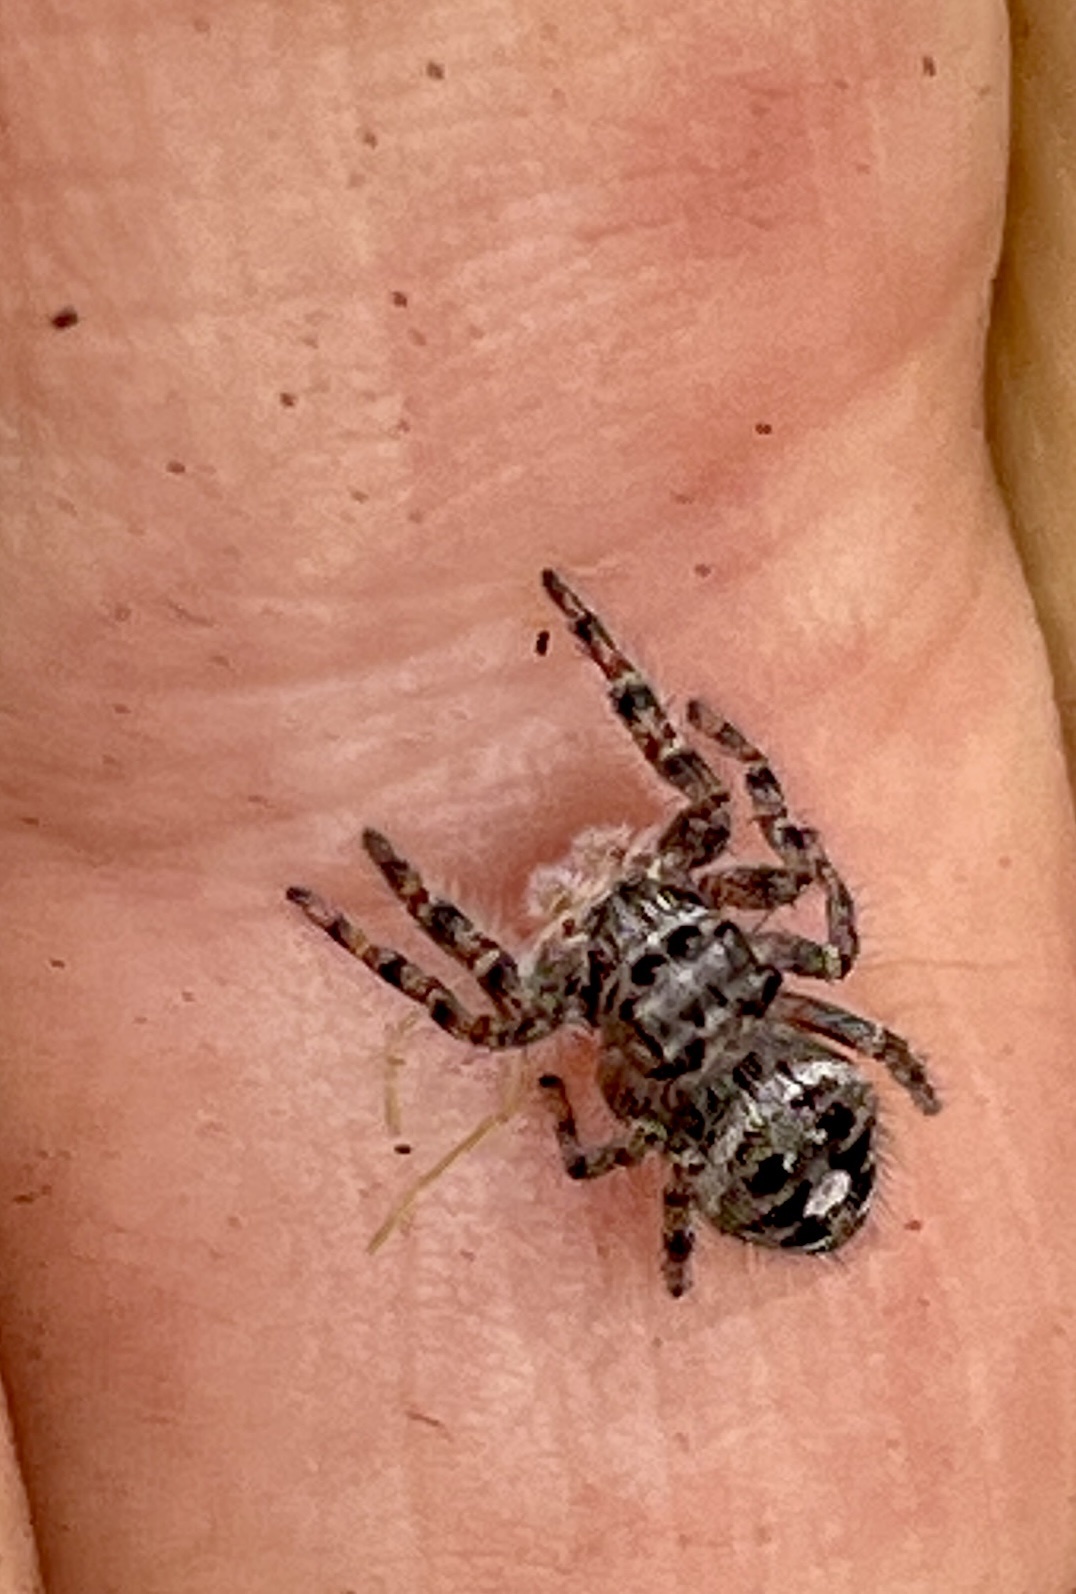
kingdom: Animalia
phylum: Arthropoda
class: Arachnida
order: Araneae
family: Salticidae
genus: Phidippus
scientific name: Phidippus putnami
